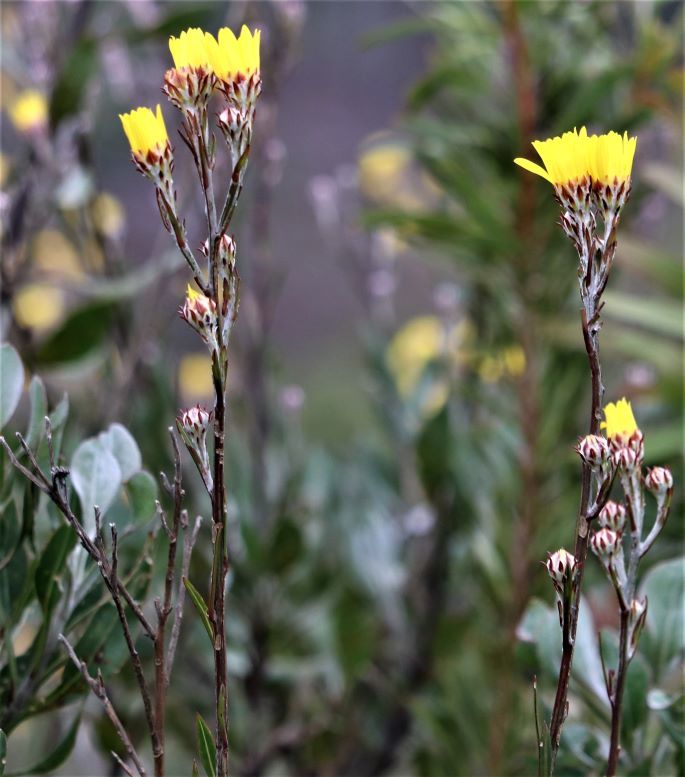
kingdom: Plantae
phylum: Tracheophyta
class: Magnoliopsida
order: Asterales
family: Asteraceae
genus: Osteospermum
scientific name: Osteospermum junceum
